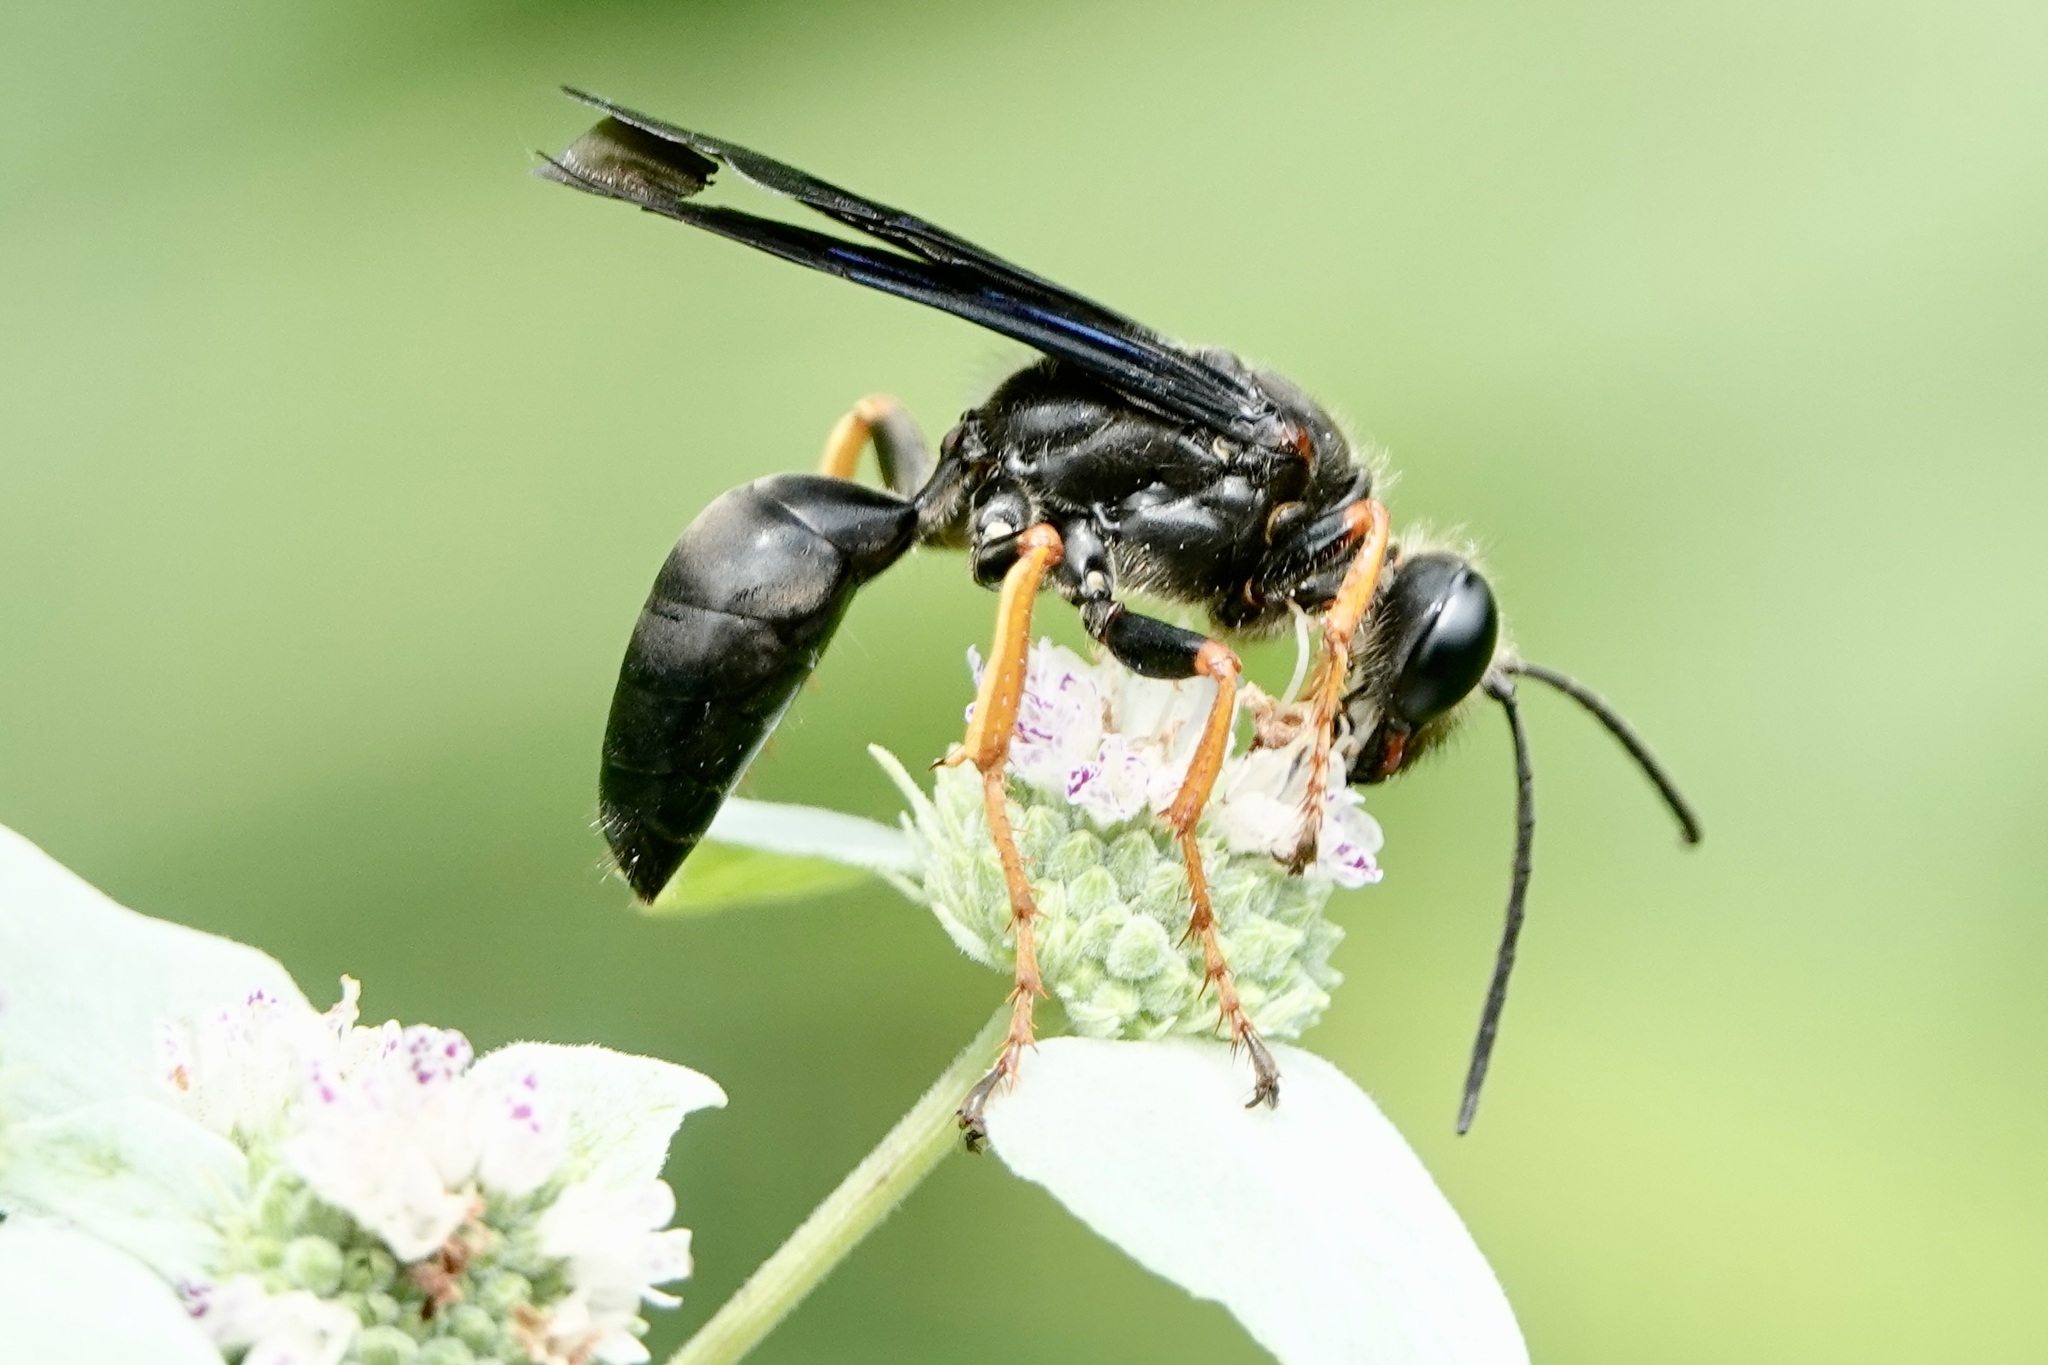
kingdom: Animalia
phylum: Arthropoda
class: Insecta
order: Hymenoptera
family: Sphecidae
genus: Sphex
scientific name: Sphex nudus
